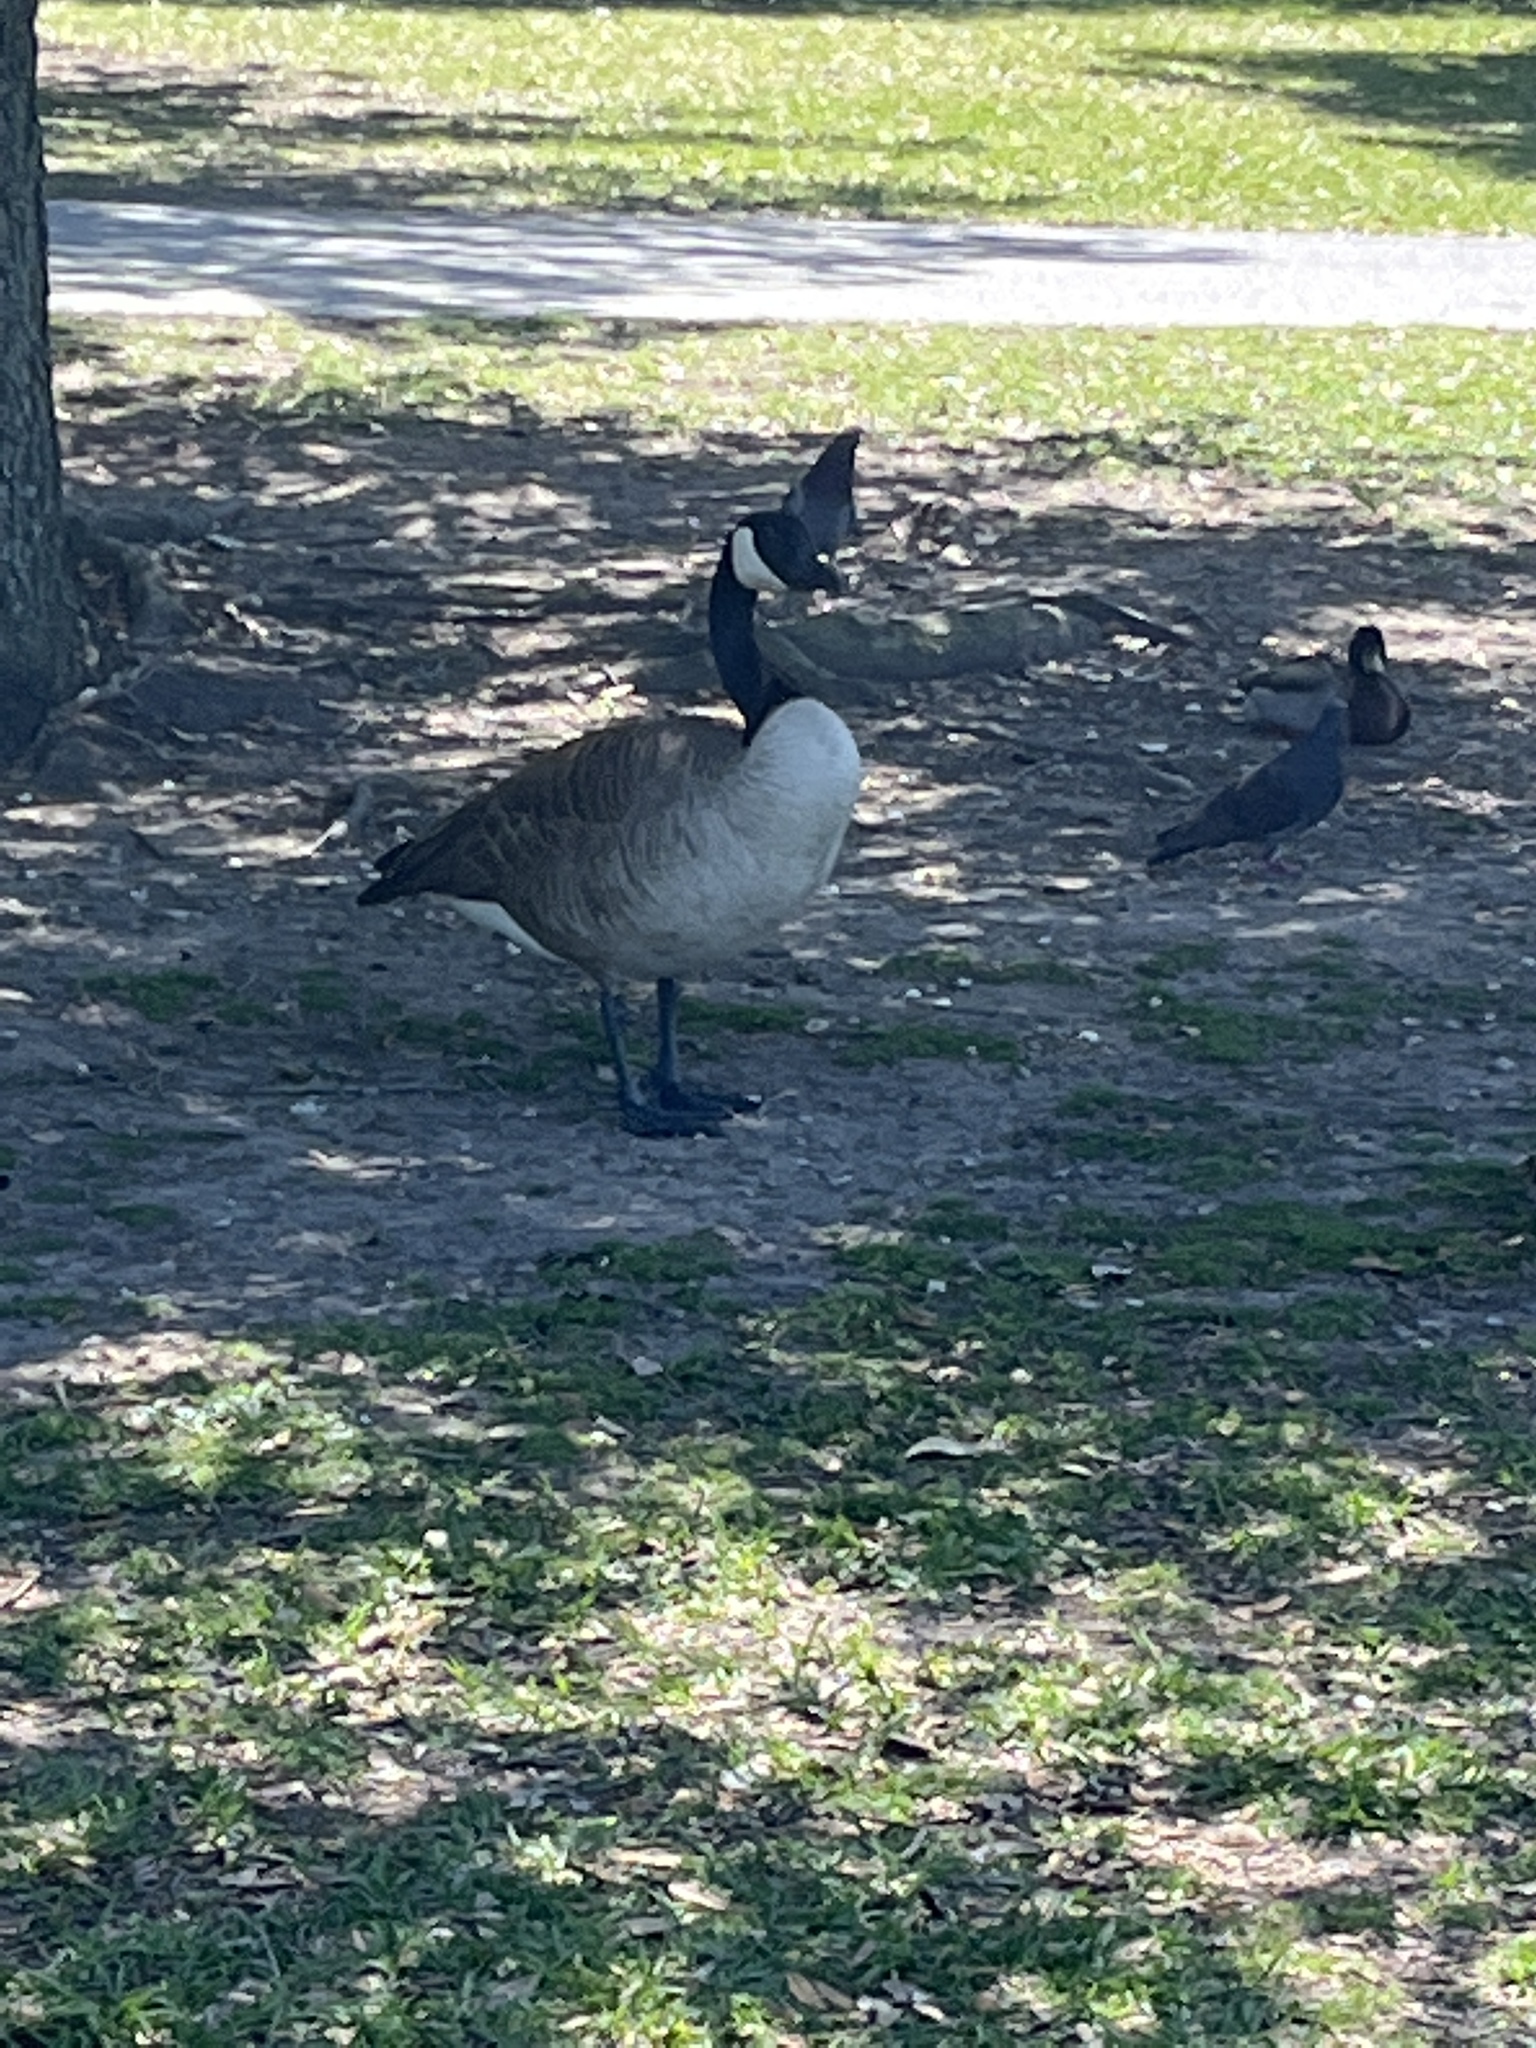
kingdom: Animalia
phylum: Chordata
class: Aves
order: Anseriformes
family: Anatidae
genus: Branta
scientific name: Branta canadensis
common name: Canada goose
